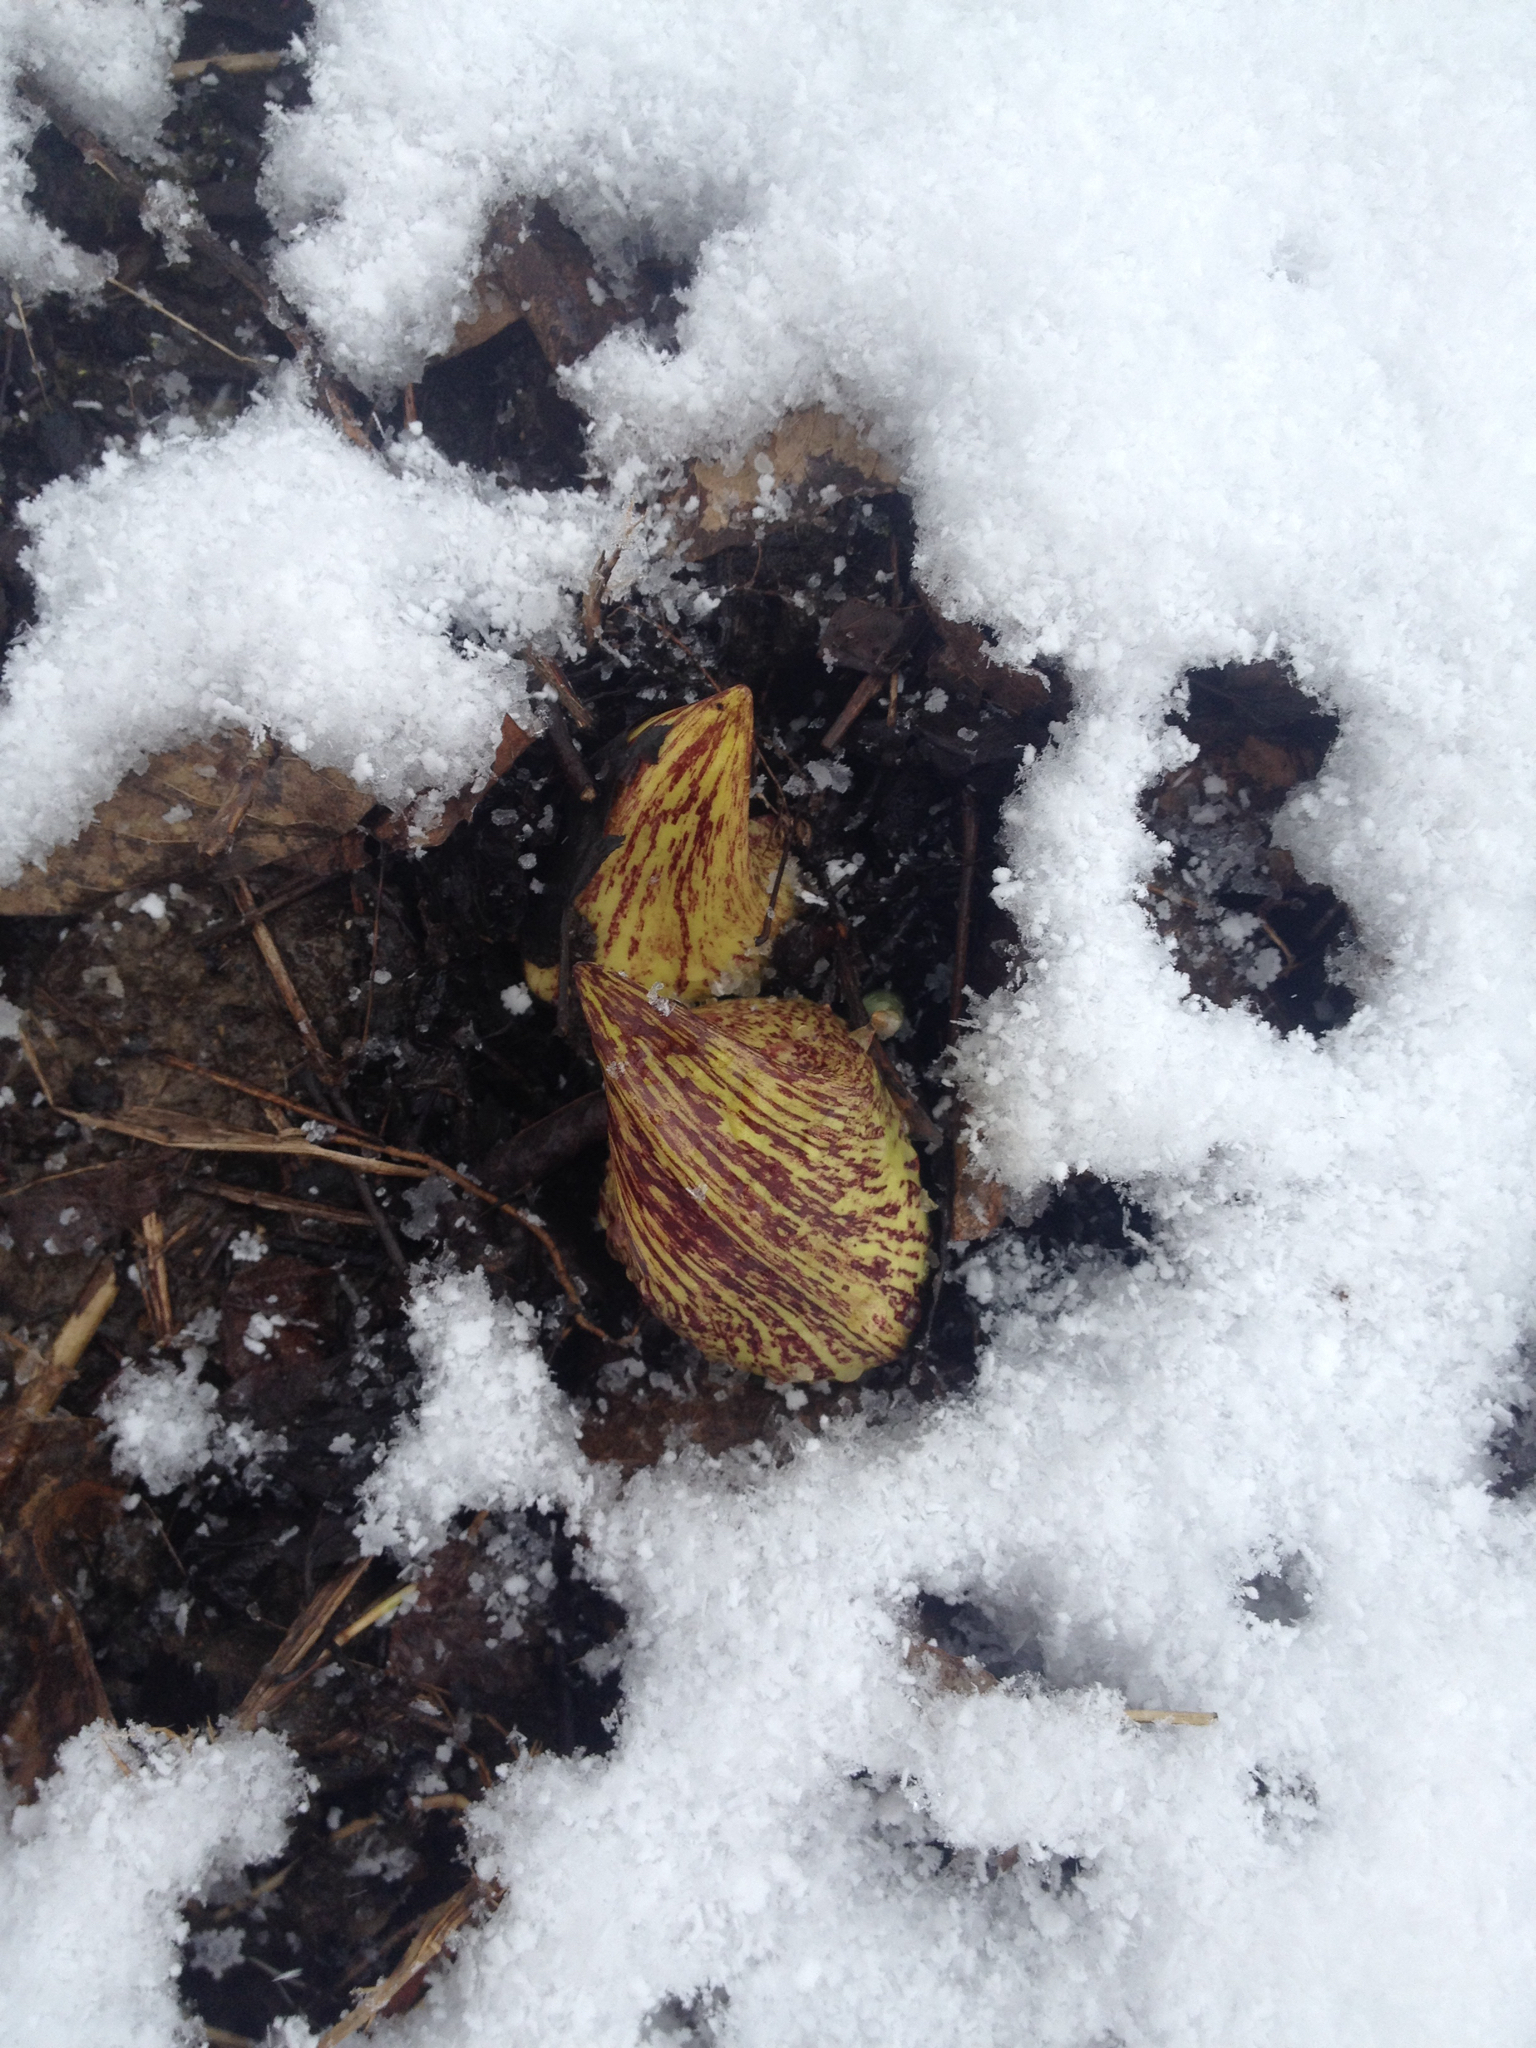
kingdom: Plantae
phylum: Tracheophyta
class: Liliopsida
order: Alismatales
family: Araceae
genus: Symplocarpus
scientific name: Symplocarpus foetidus
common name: Eastern skunk cabbage
